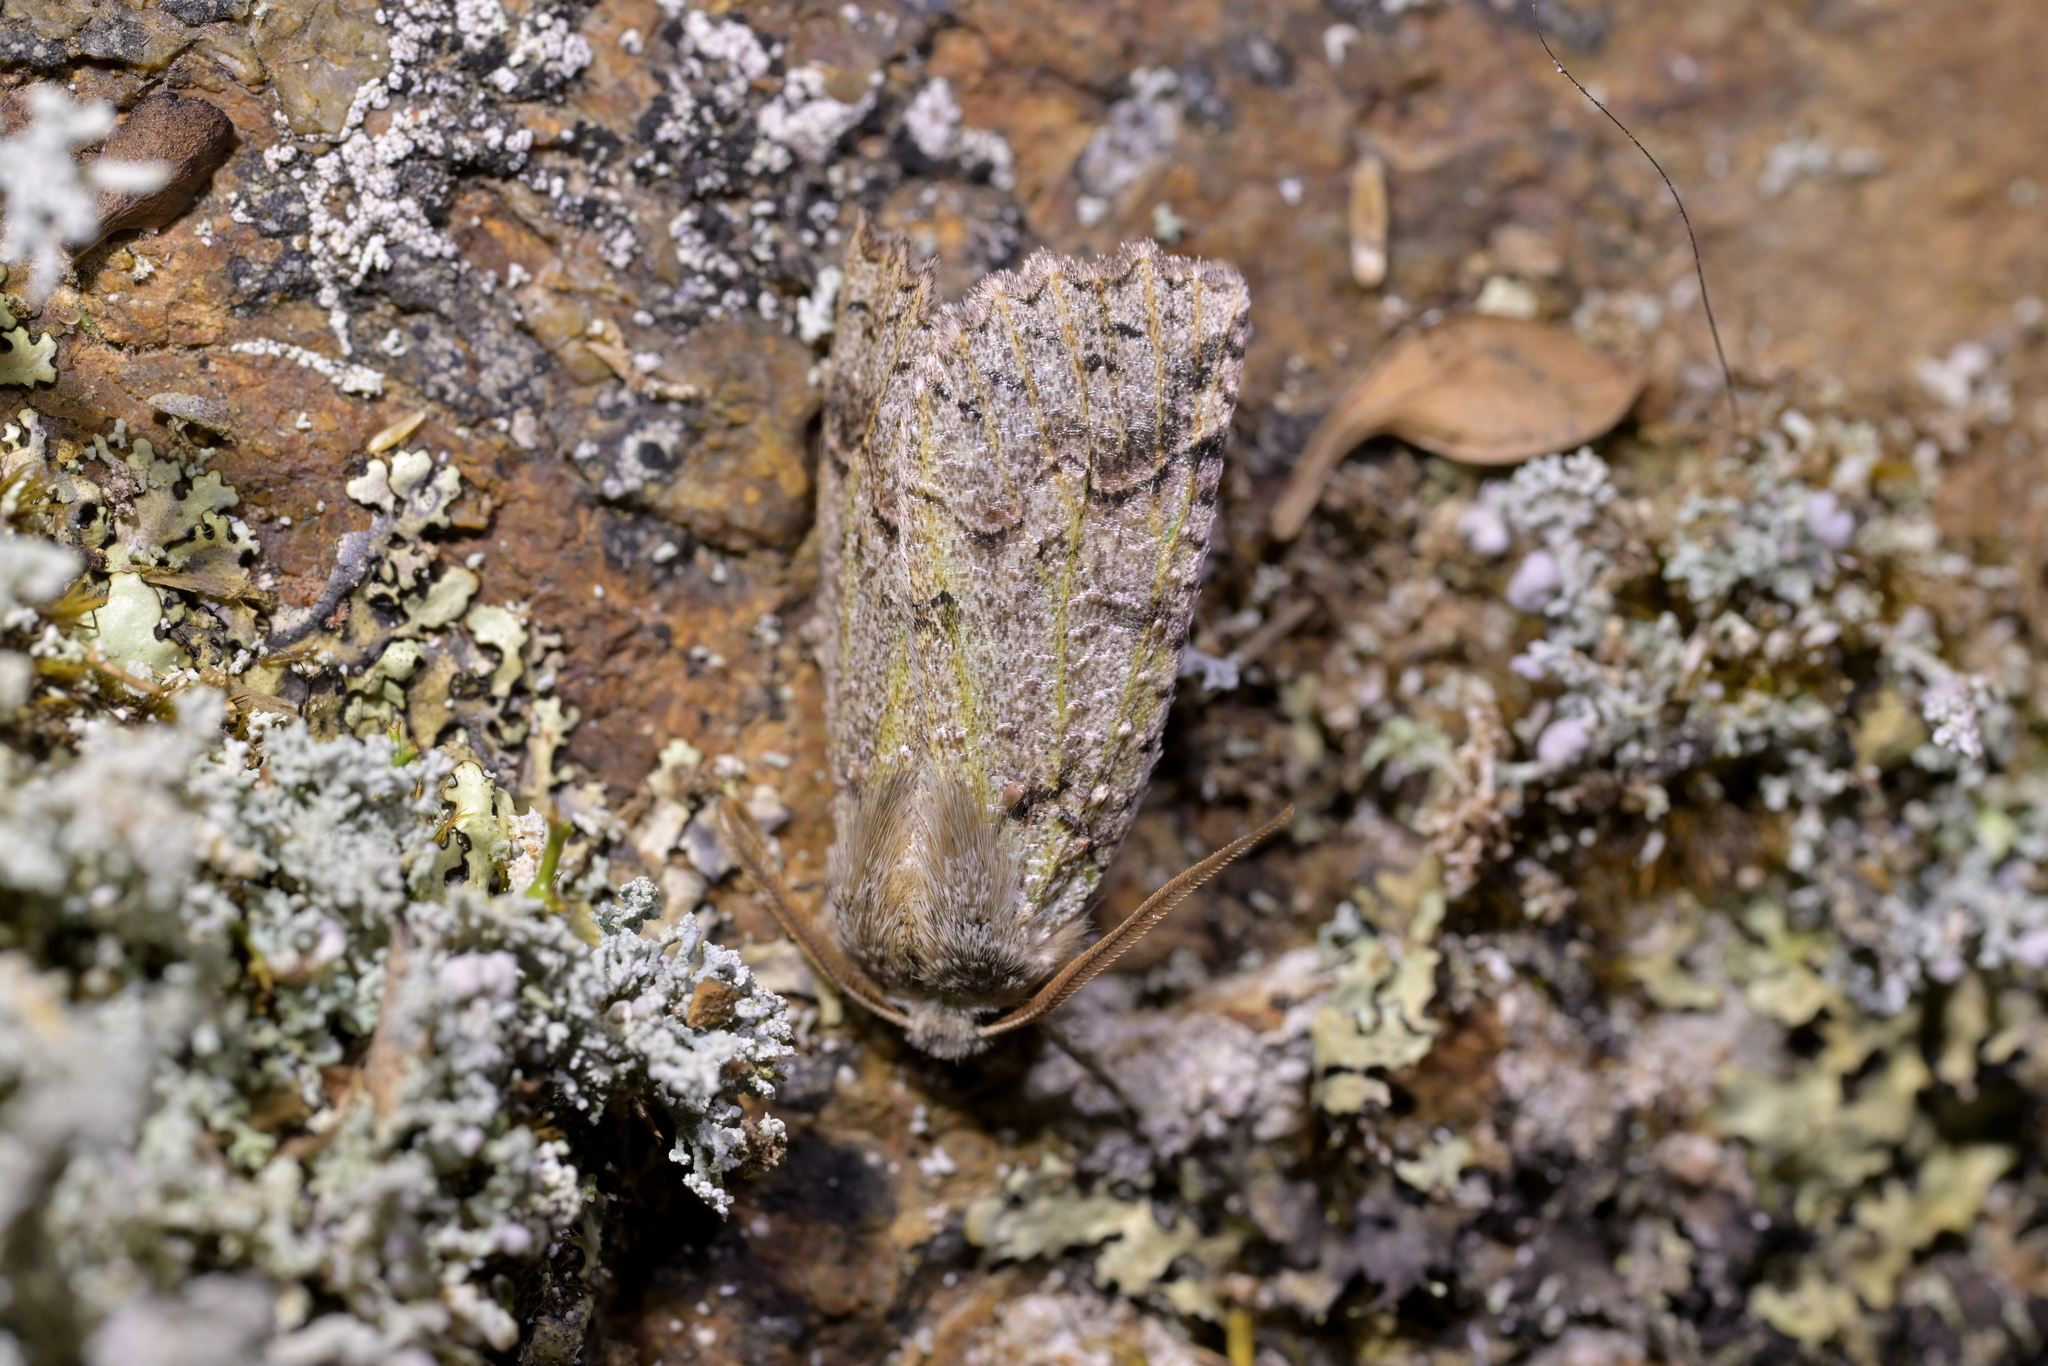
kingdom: Animalia
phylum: Arthropoda
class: Insecta
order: Lepidoptera
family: Geometridae
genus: Declana
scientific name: Declana floccosa
